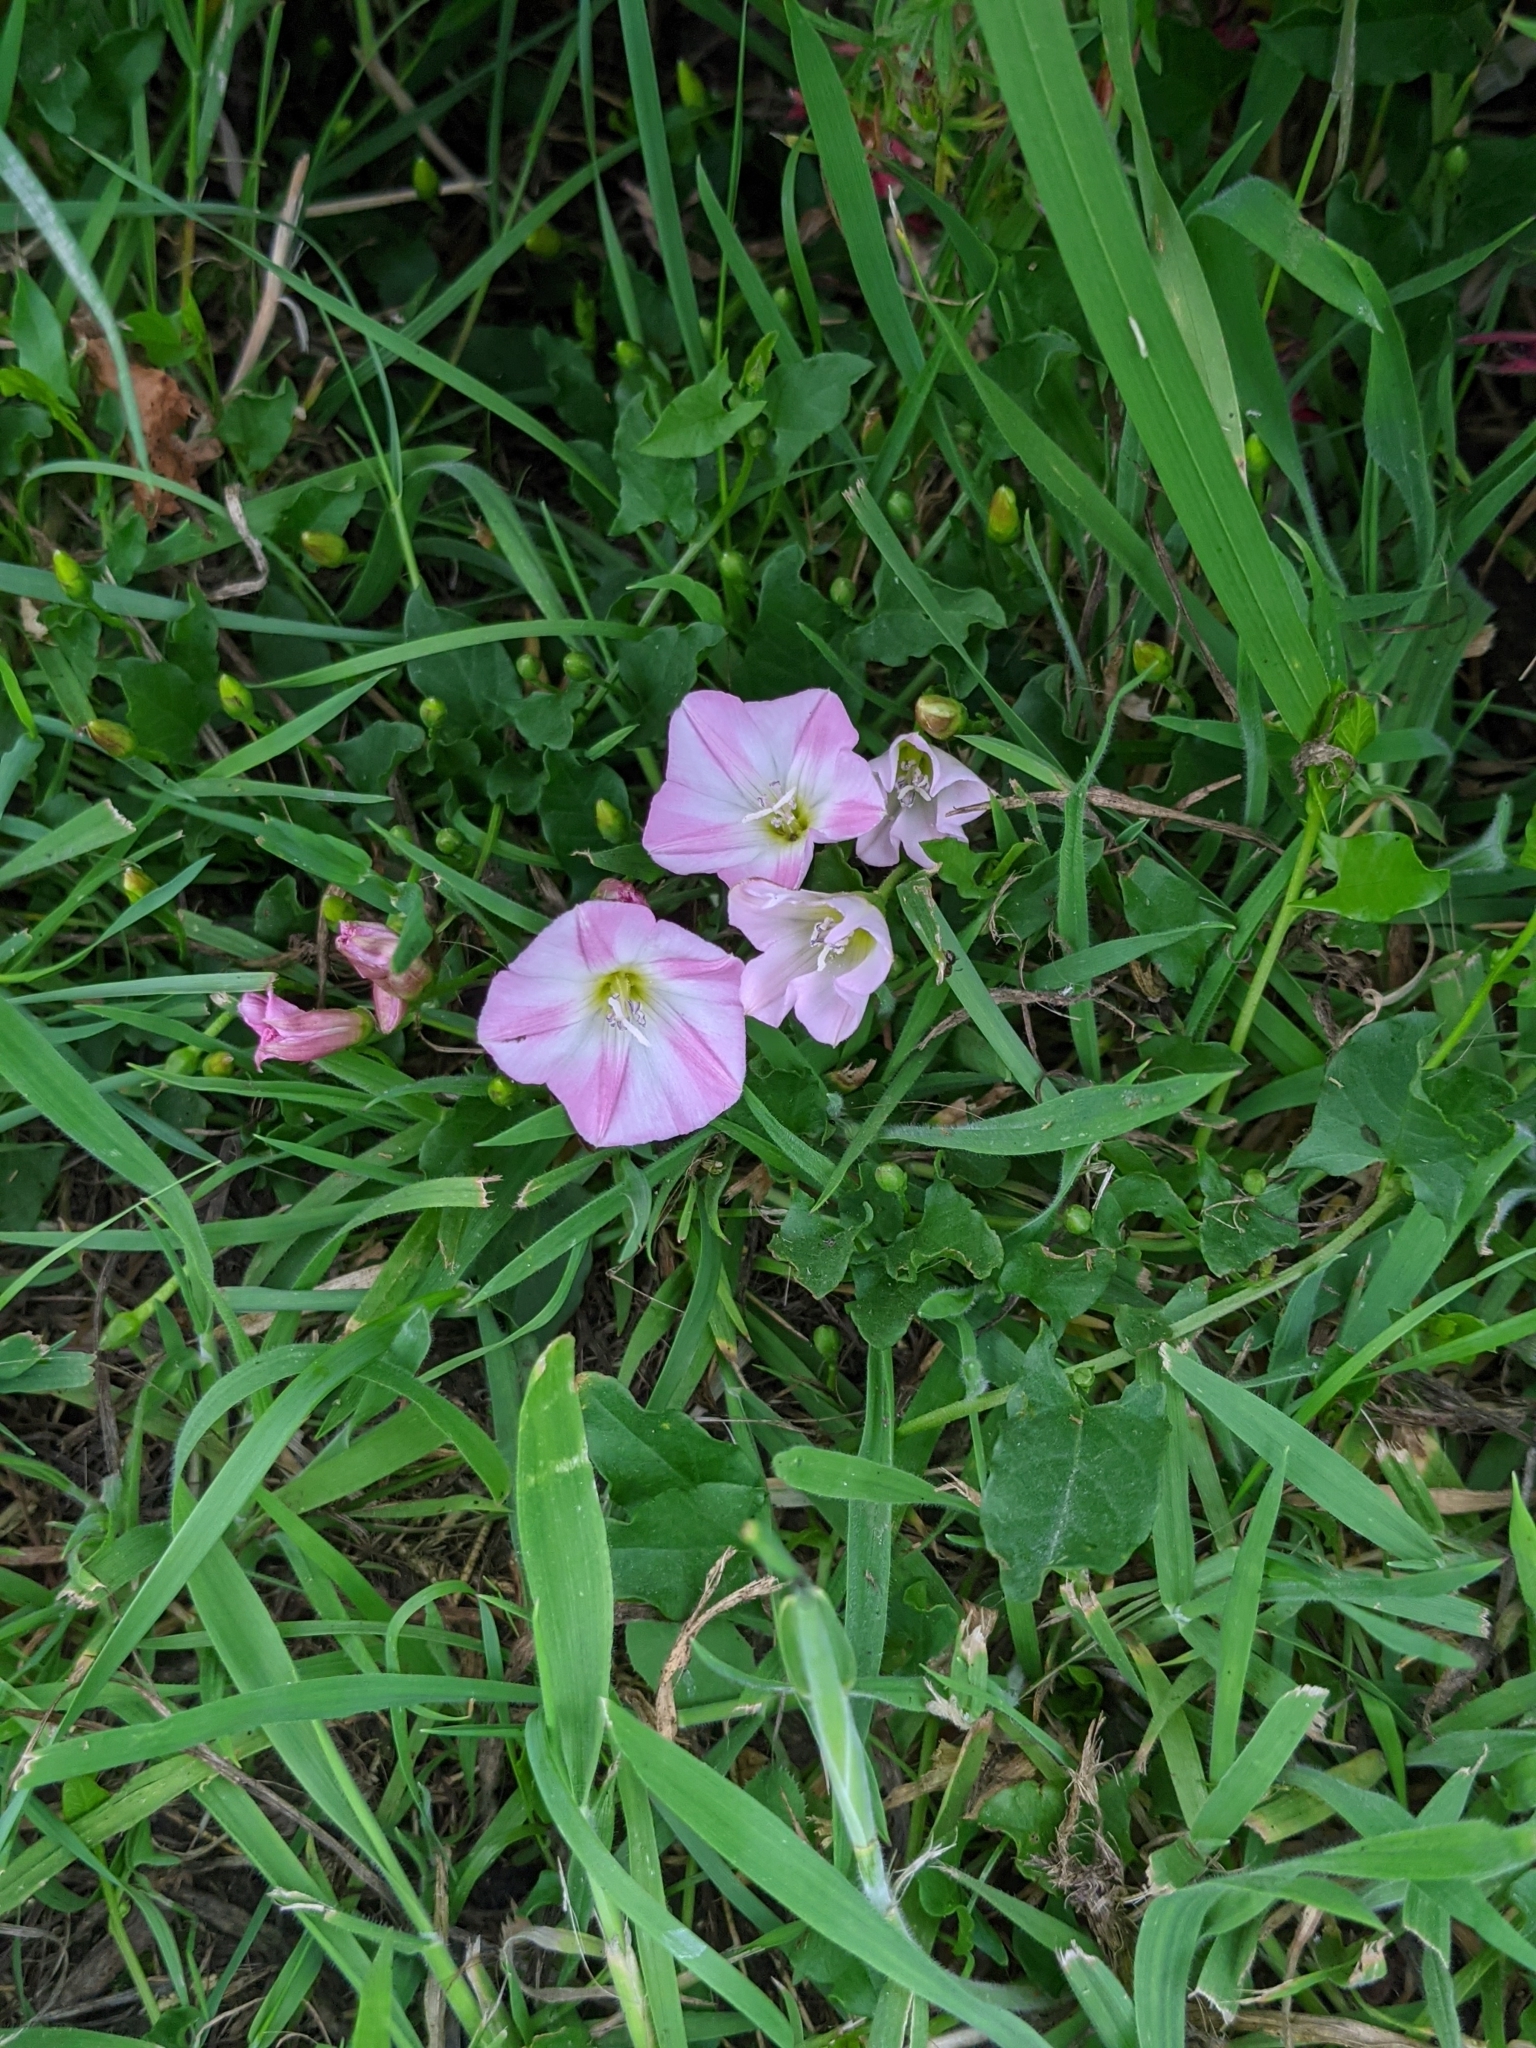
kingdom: Plantae
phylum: Tracheophyta
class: Magnoliopsida
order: Solanales
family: Convolvulaceae
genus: Convolvulus
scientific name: Convolvulus arvensis
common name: Field bindweed
